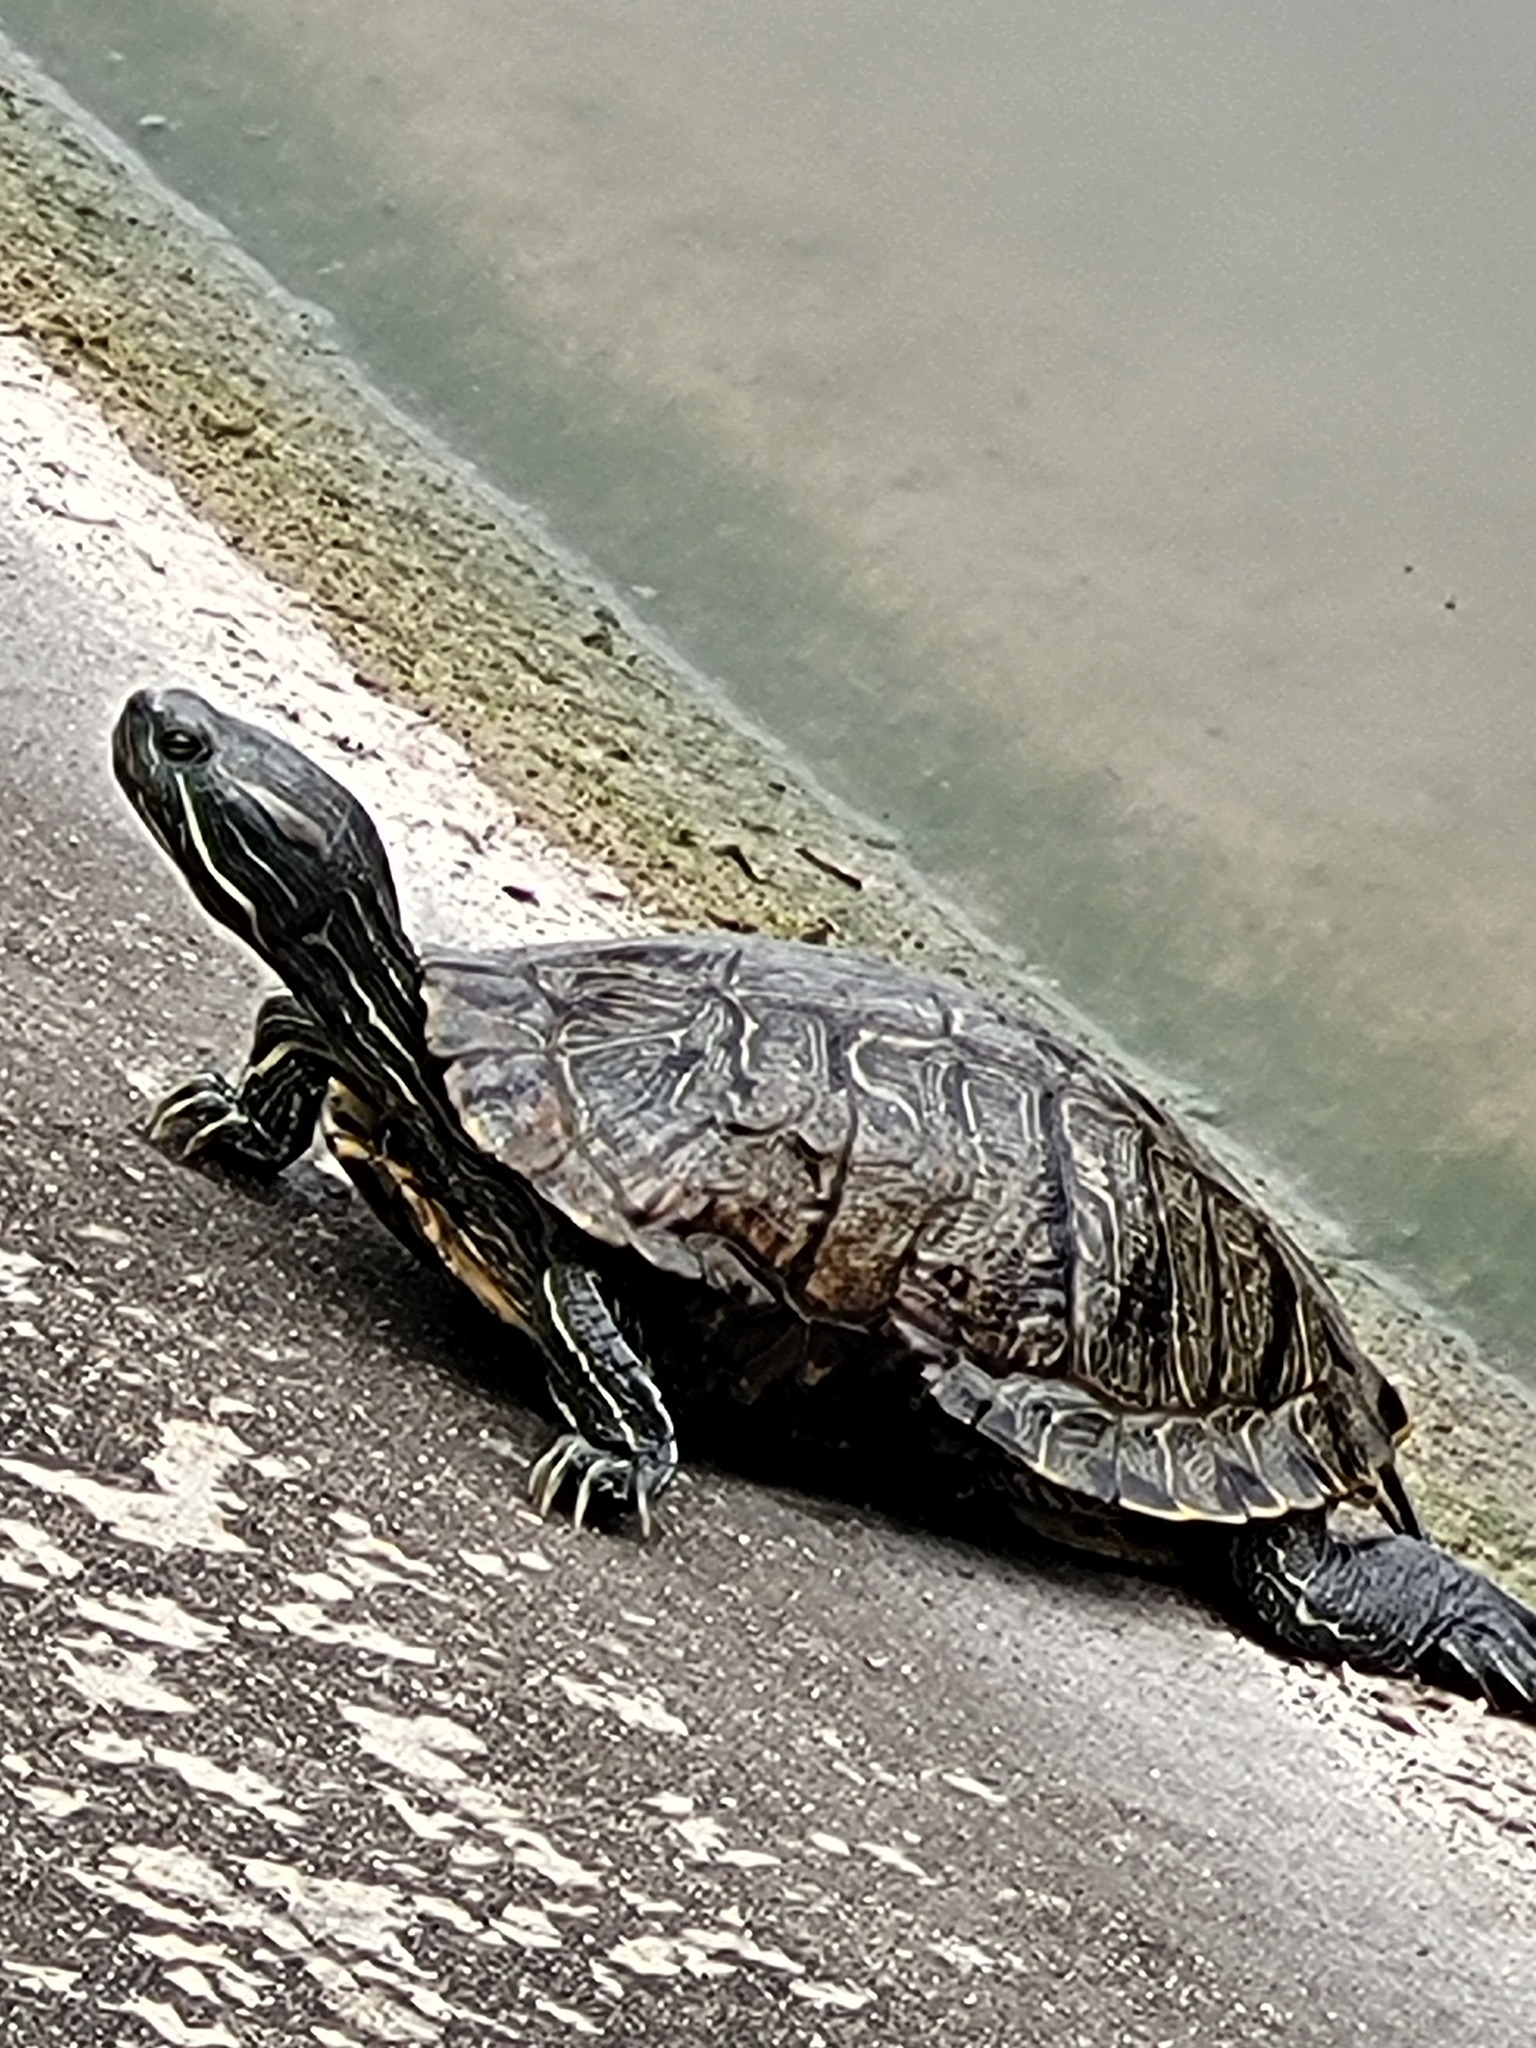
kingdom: Animalia
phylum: Chordata
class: Testudines
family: Emydidae
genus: Trachemys
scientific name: Trachemys scripta
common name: Slider
